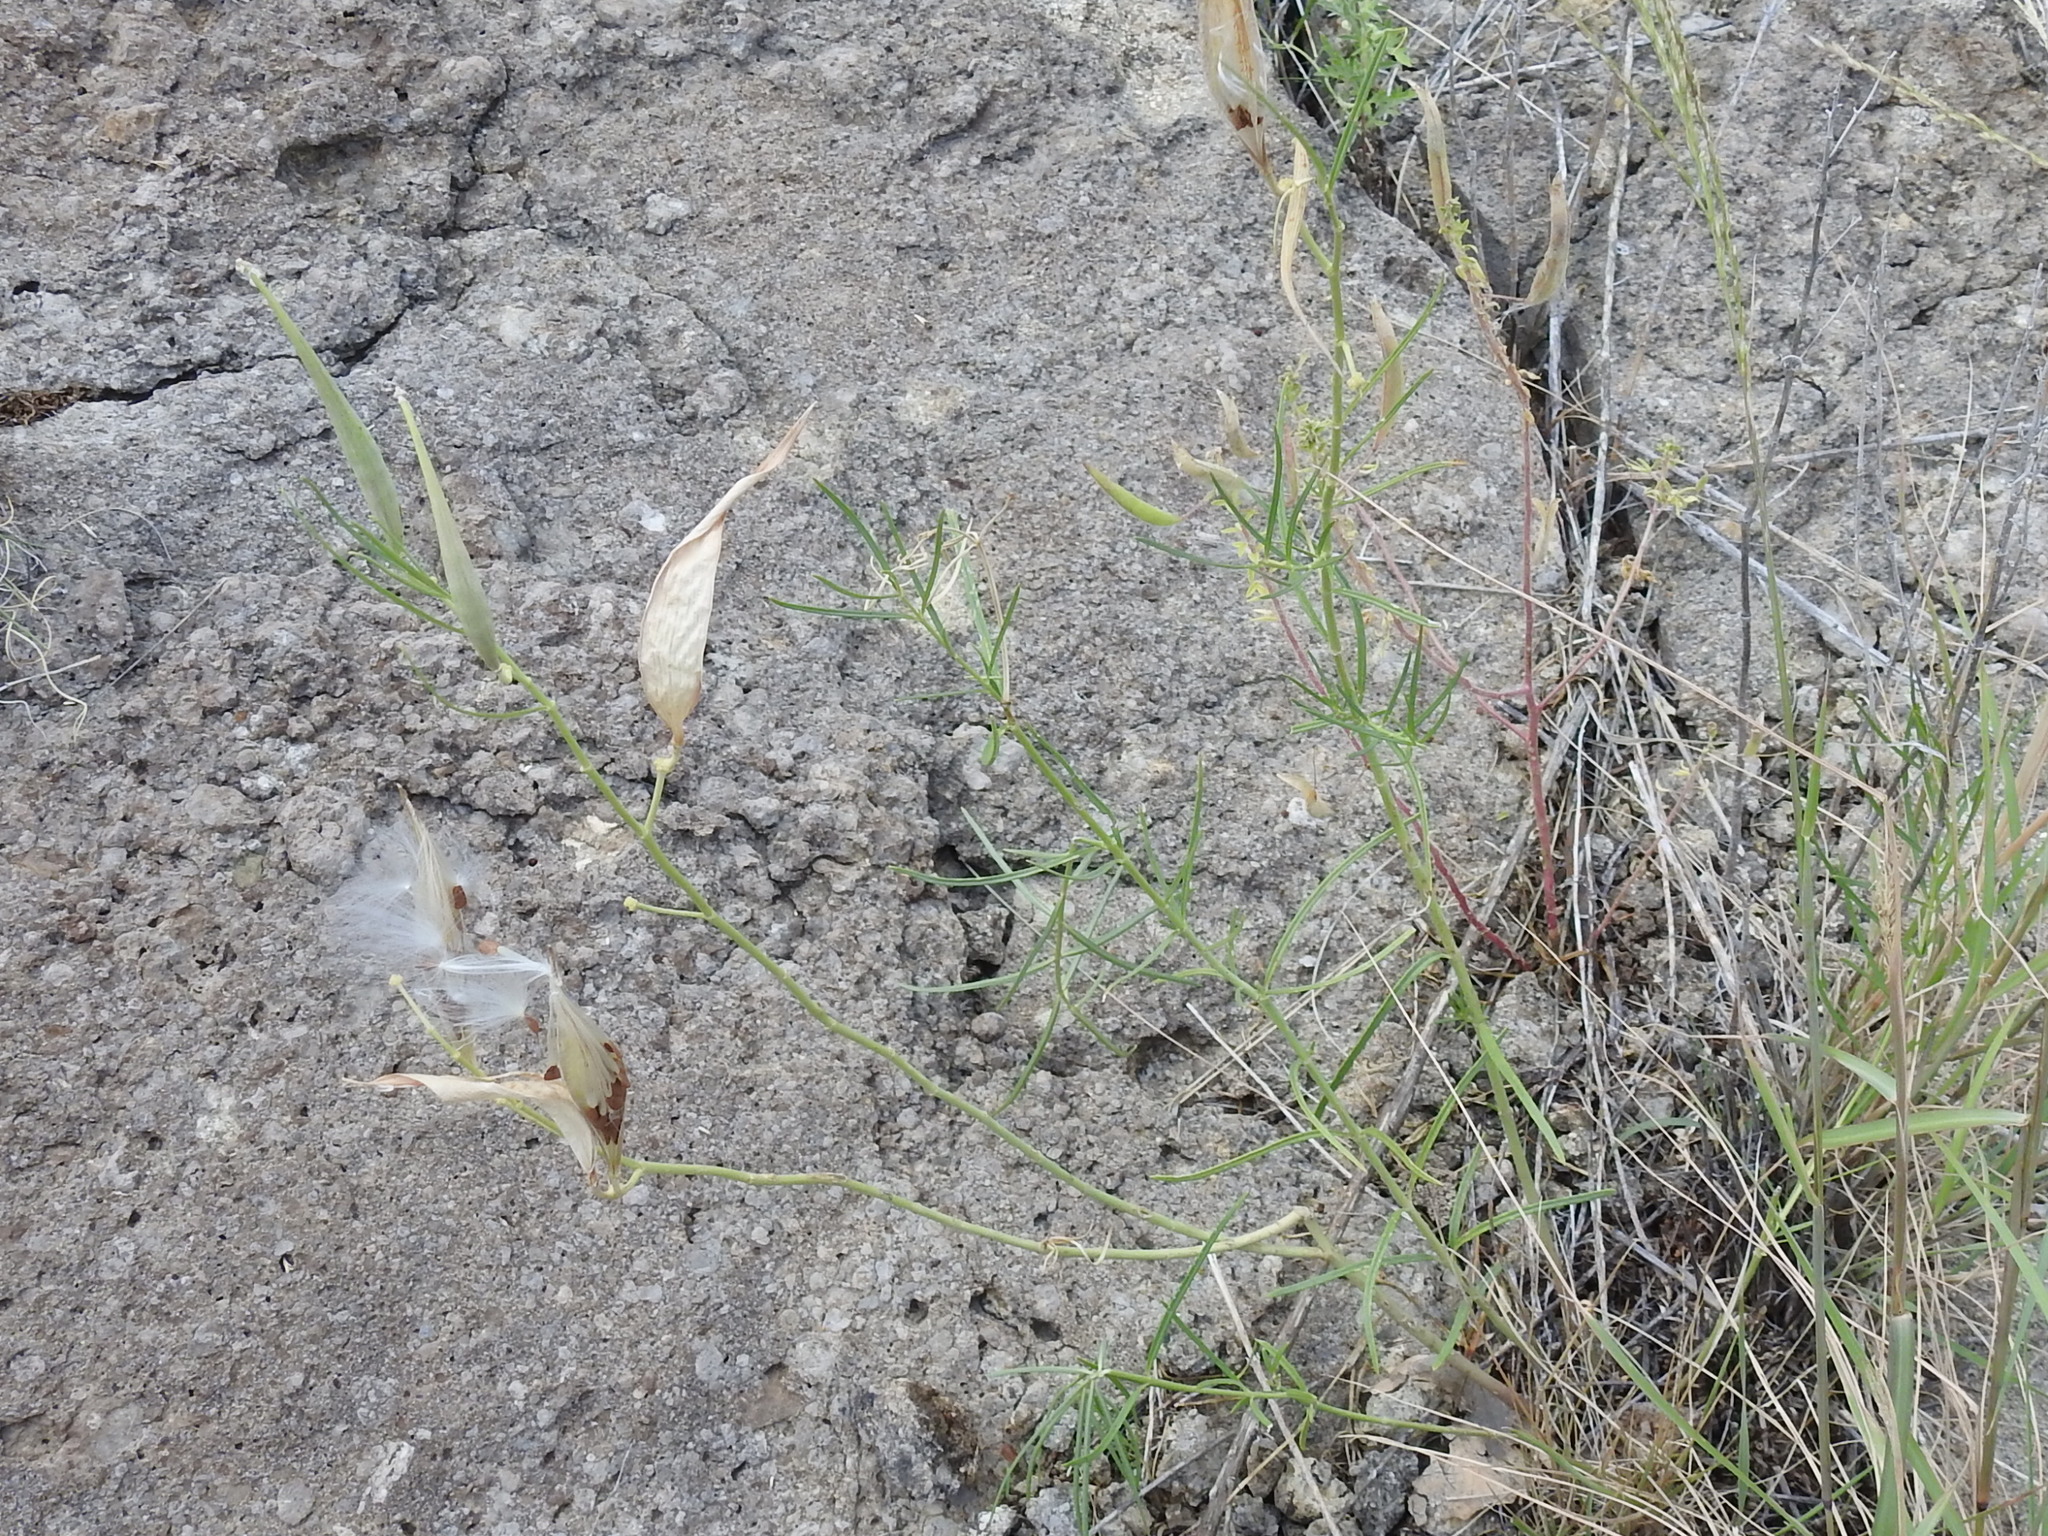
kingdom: Plantae
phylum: Tracheophyta
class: Magnoliopsida
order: Gentianales
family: Apocynaceae
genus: Asclepias
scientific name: Asclepias subverticillata
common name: Horsetail milkweed
